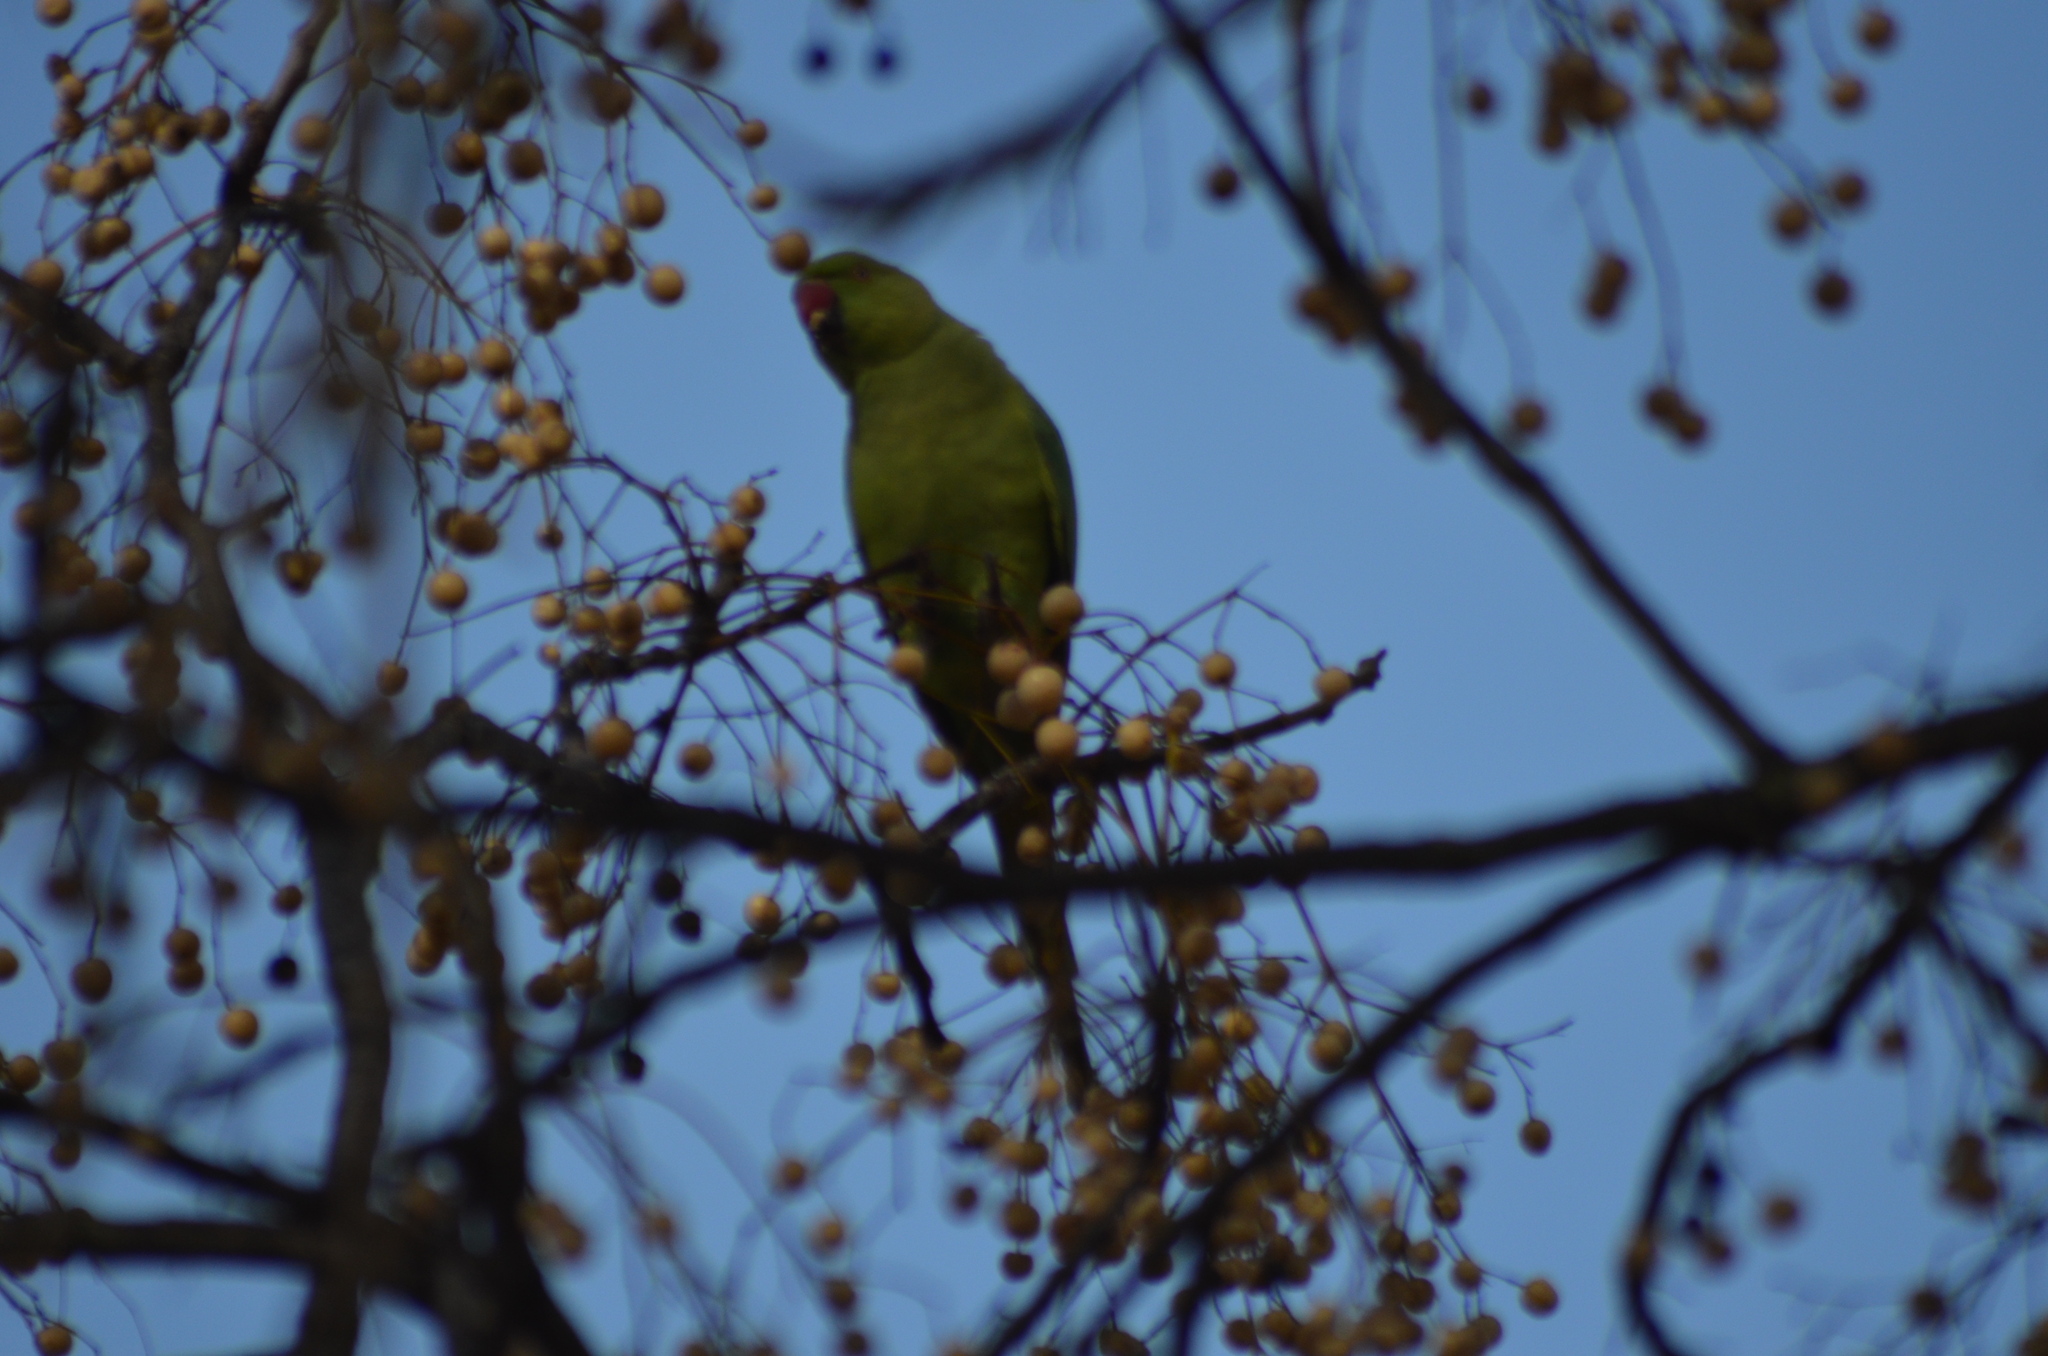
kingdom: Animalia
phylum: Chordata
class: Aves
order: Psittaciformes
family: Psittacidae
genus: Psittacula
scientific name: Psittacula krameri
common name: Rose-ringed parakeet
